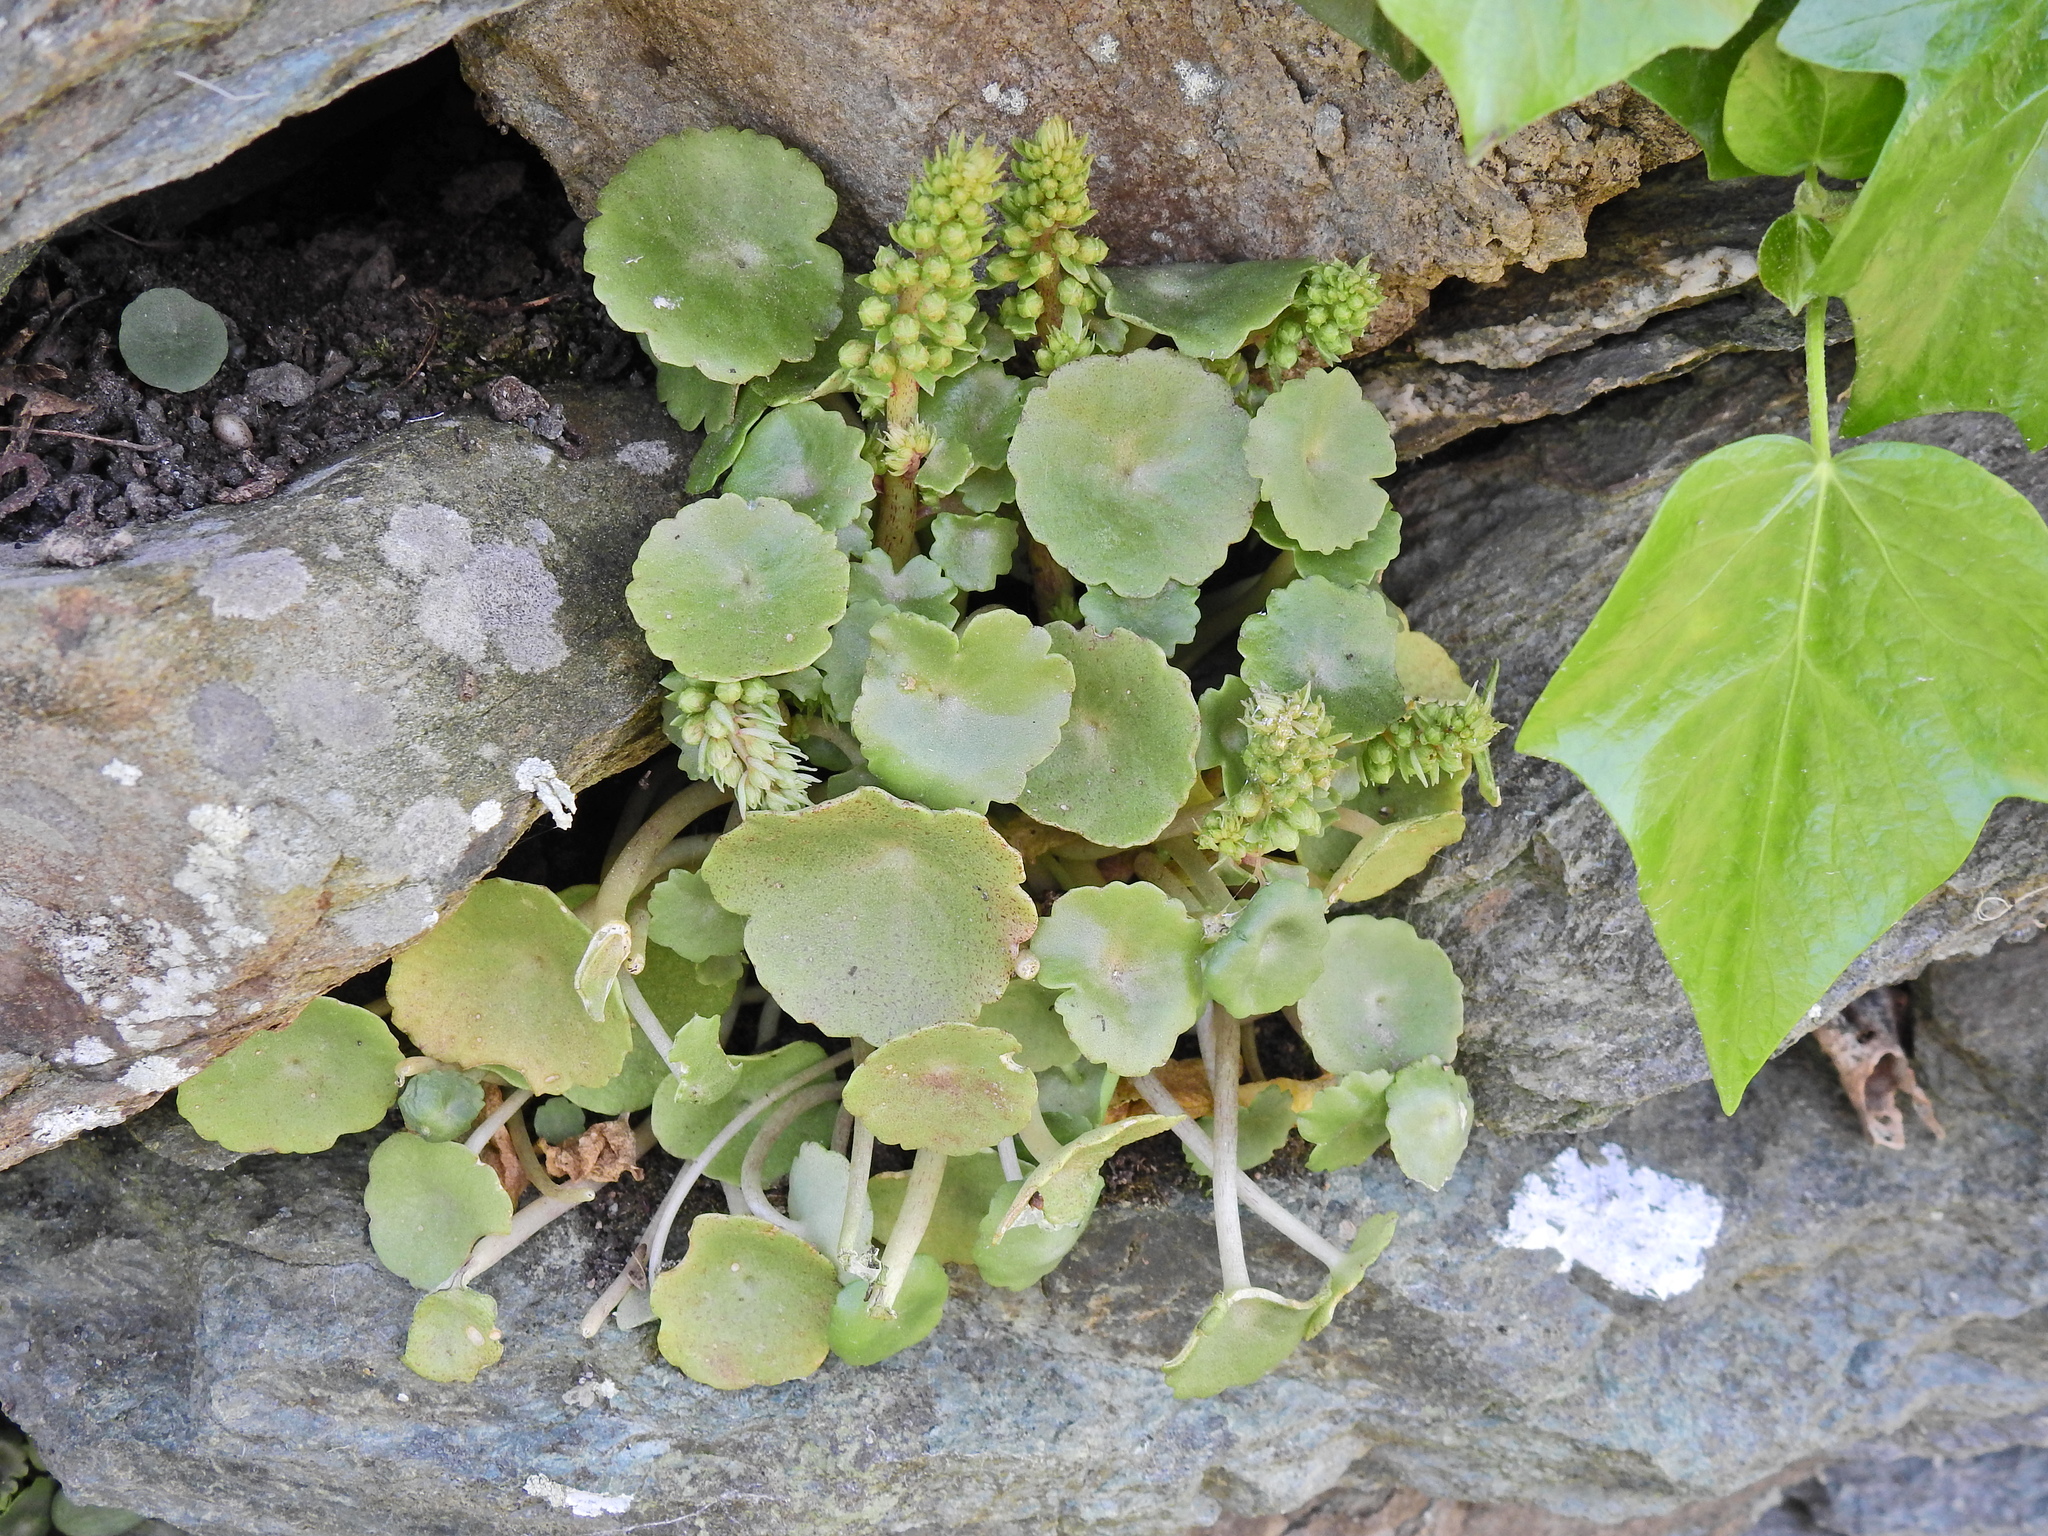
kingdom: Plantae
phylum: Tracheophyta
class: Magnoliopsida
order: Saxifragales
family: Crassulaceae
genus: Umbilicus
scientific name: Umbilicus rupestris
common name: Navelwort
